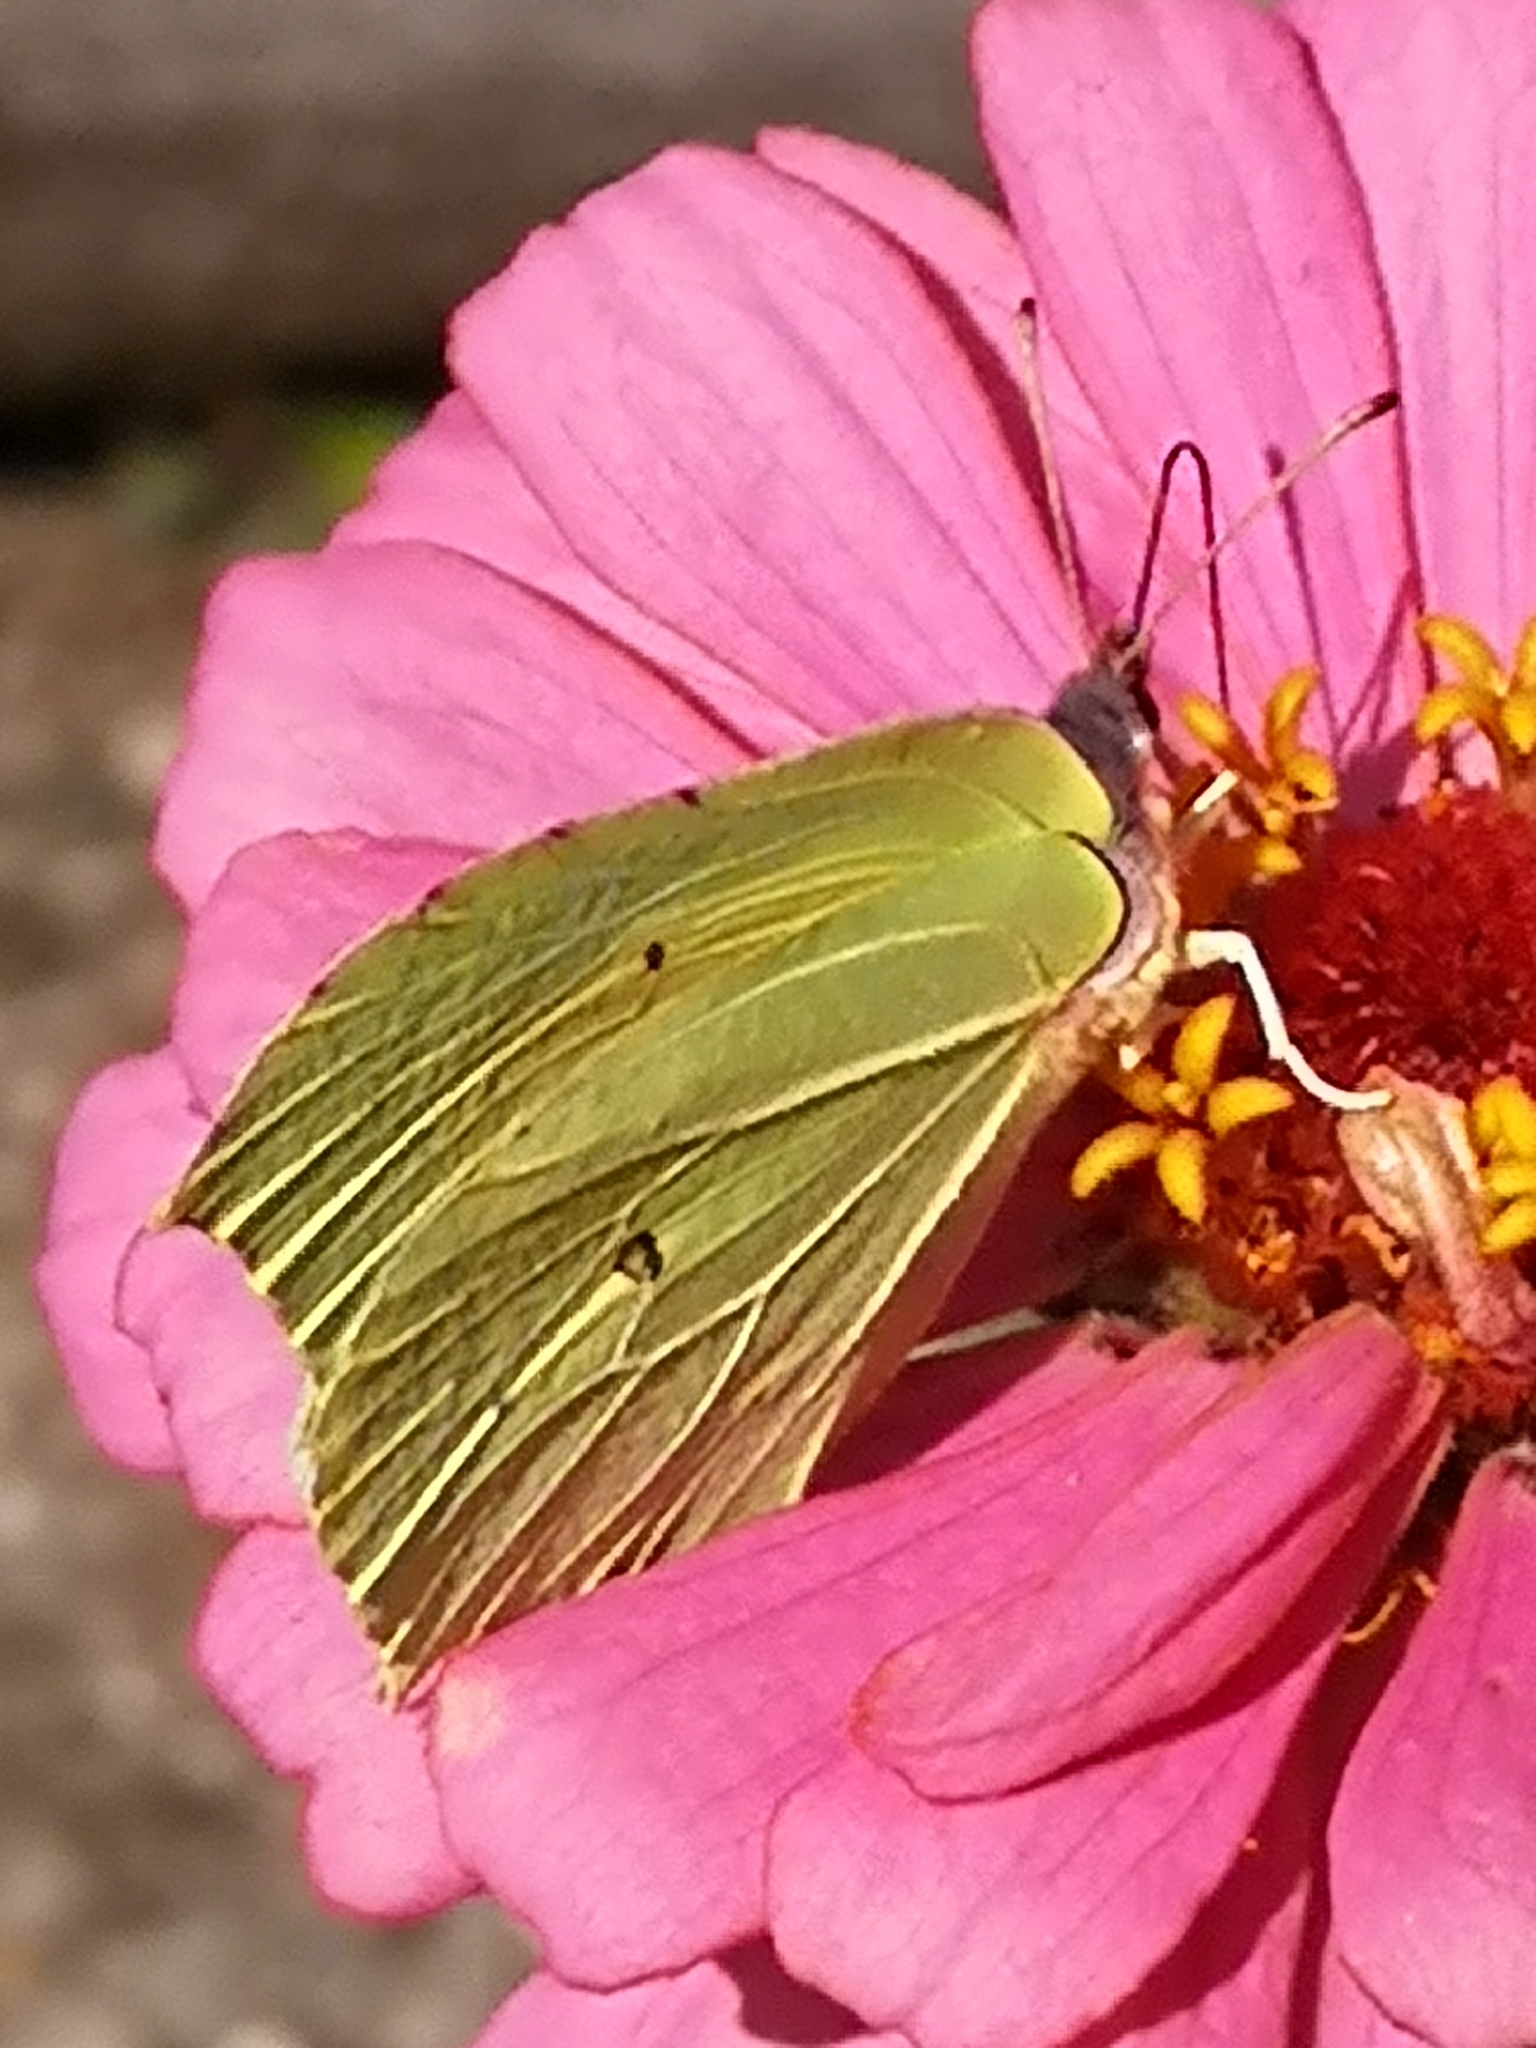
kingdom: Animalia
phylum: Arthropoda
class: Insecta
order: Lepidoptera
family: Pieridae
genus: Gonepteryx
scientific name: Gonepteryx rhamni
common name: Brimstone
